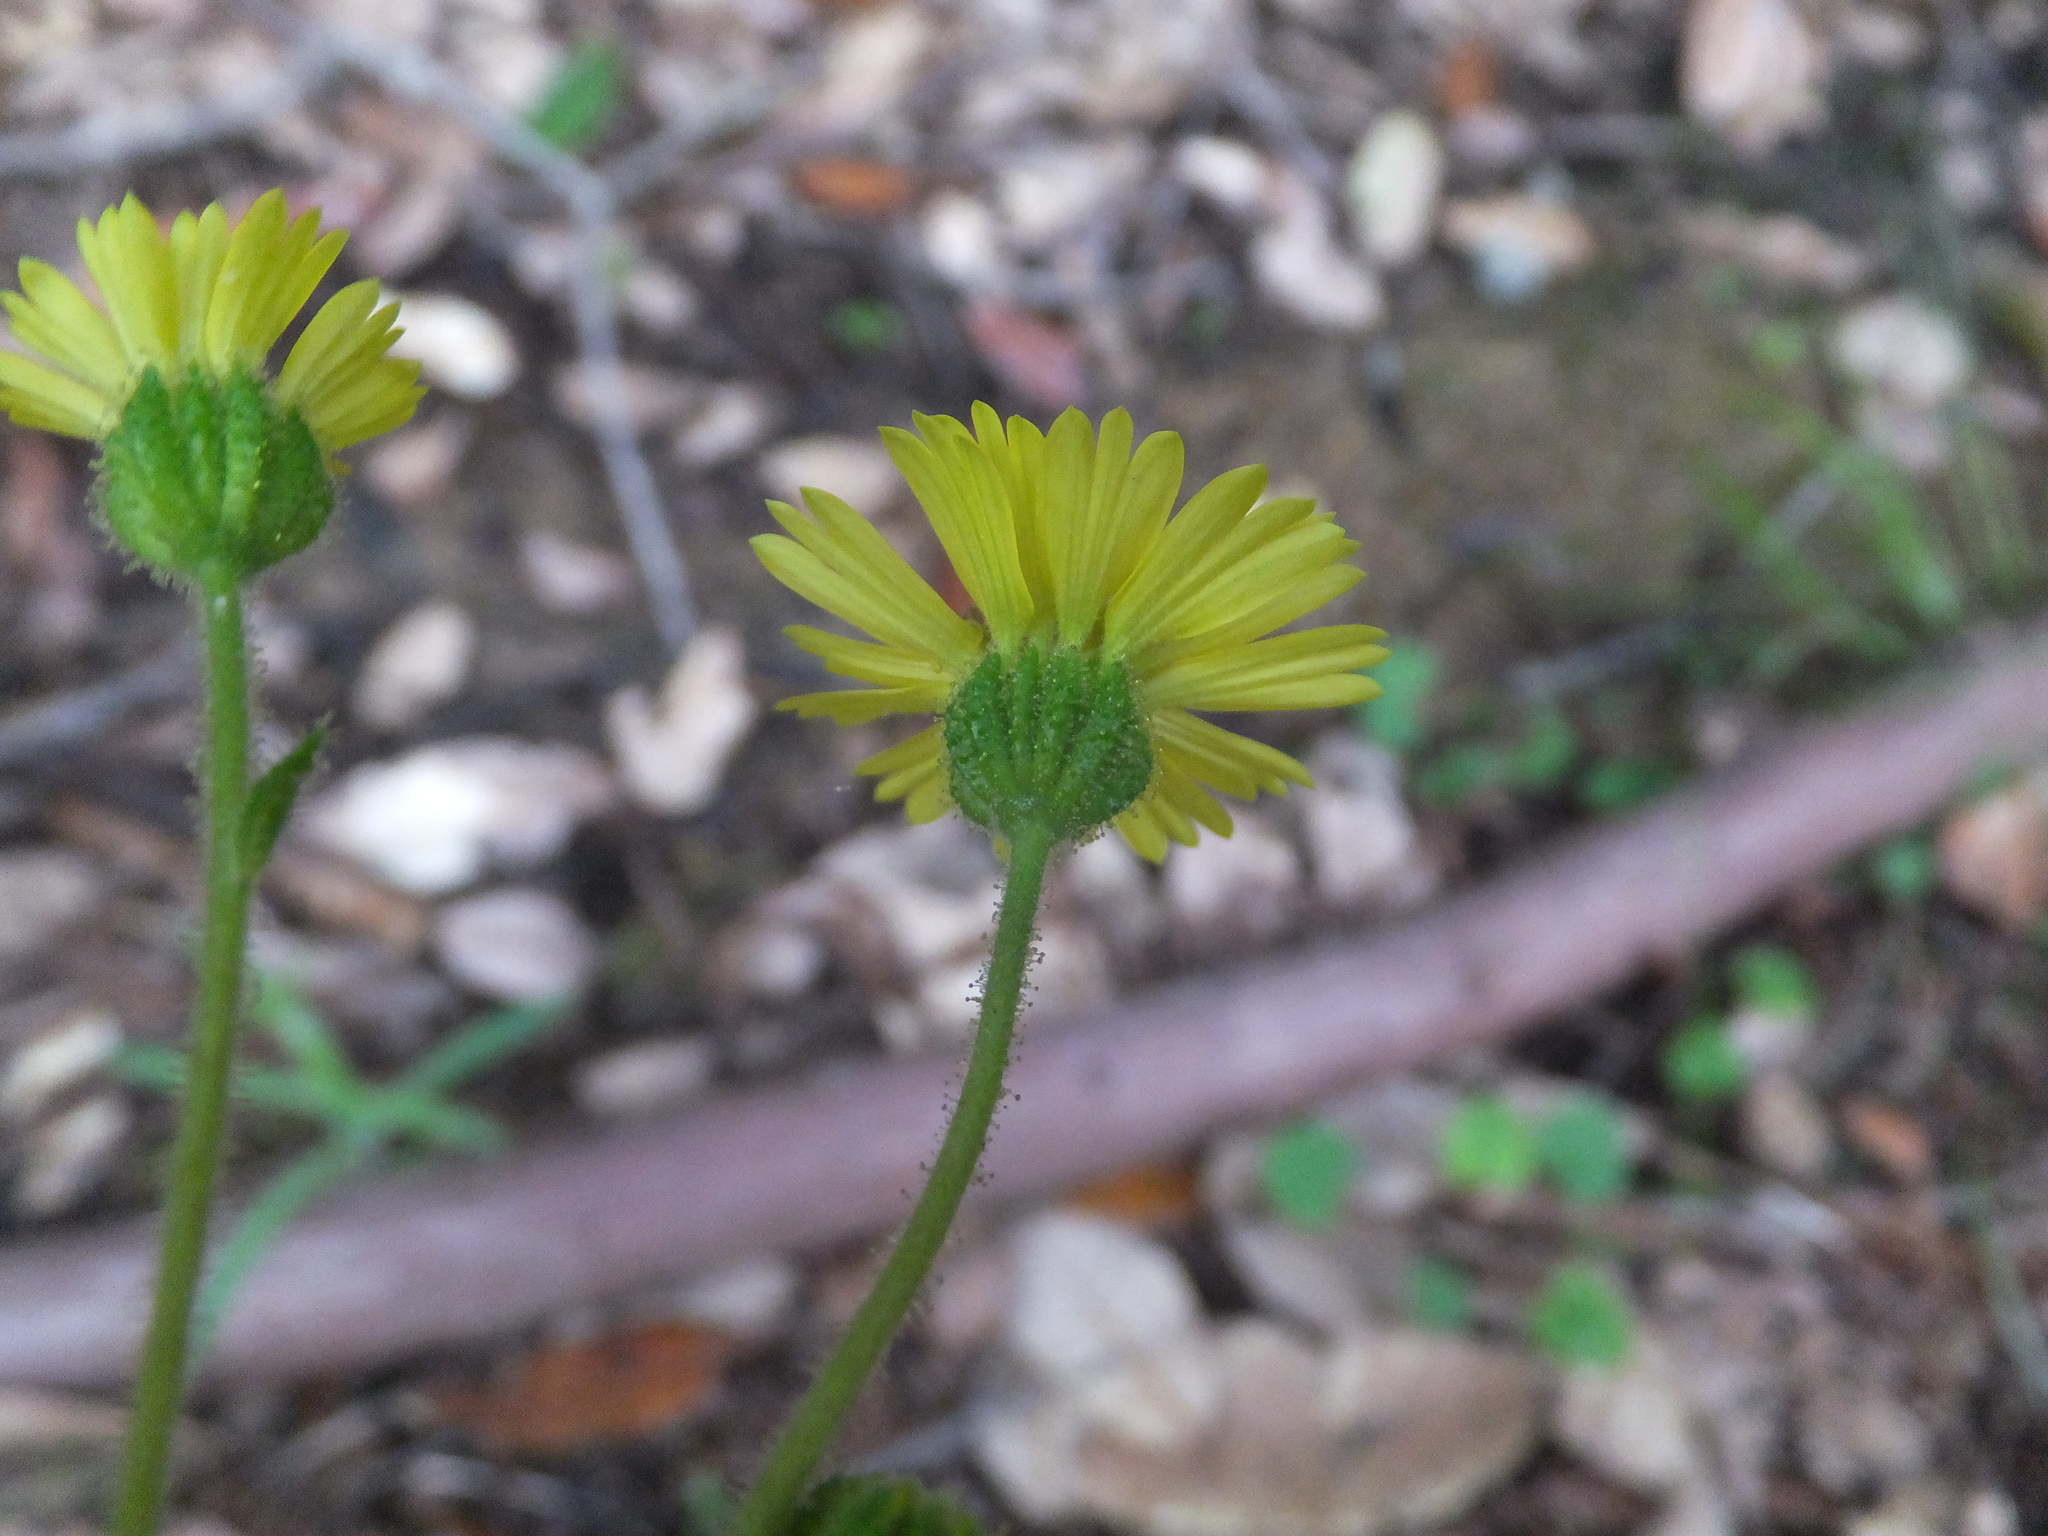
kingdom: Plantae
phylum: Tracheophyta
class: Magnoliopsida
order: Asterales
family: Asteraceae
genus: Anisocarpus
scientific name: Anisocarpus madioides
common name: Woodland madia
